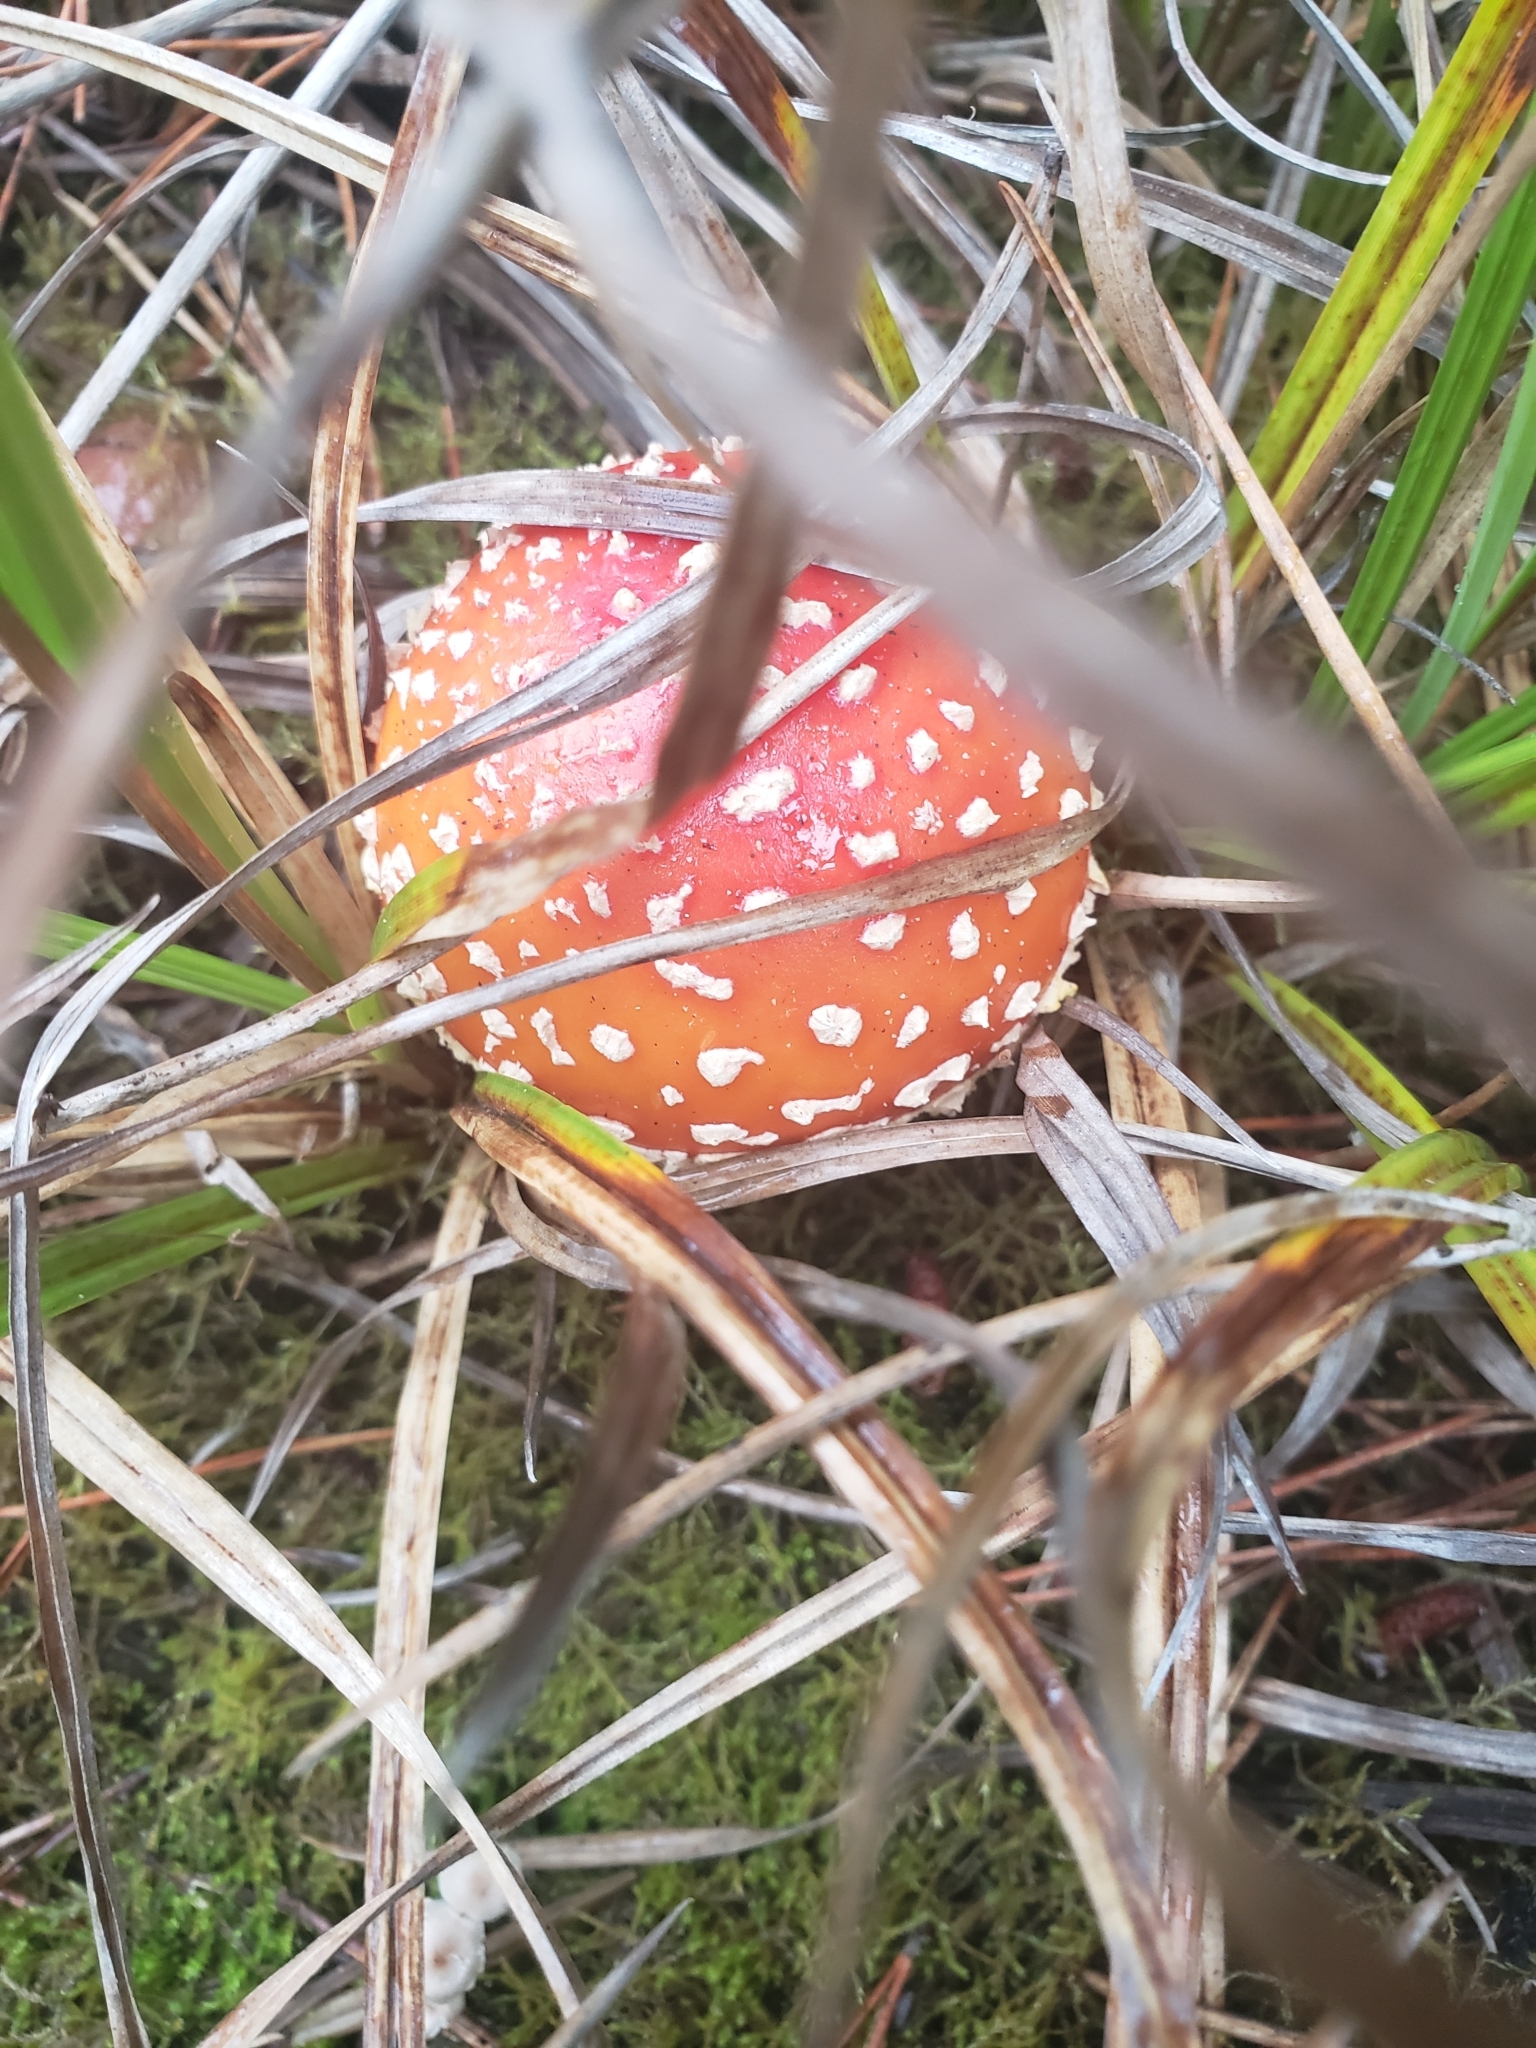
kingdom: Fungi
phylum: Basidiomycota
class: Agaricomycetes
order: Agaricales
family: Amanitaceae
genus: Amanita
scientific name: Amanita muscaria
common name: Fly agaric
